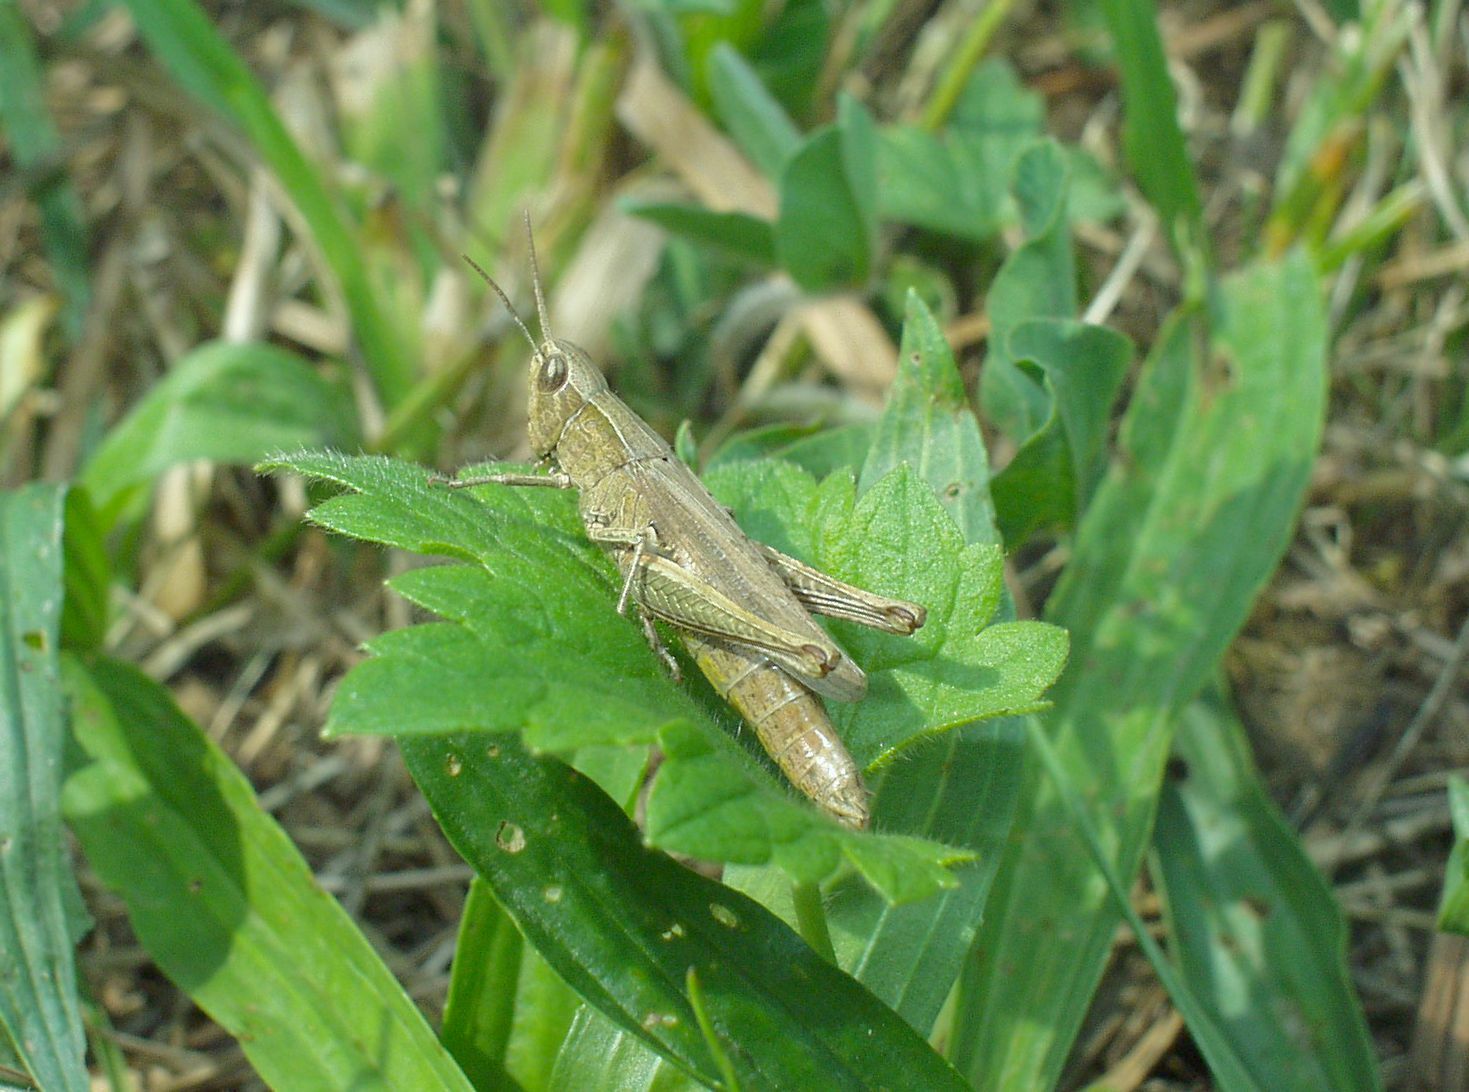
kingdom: Animalia
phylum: Arthropoda
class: Insecta
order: Orthoptera
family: Acrididae
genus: Chorthippus
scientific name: Chorthippus dorsatus
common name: Steppe grasshopper
